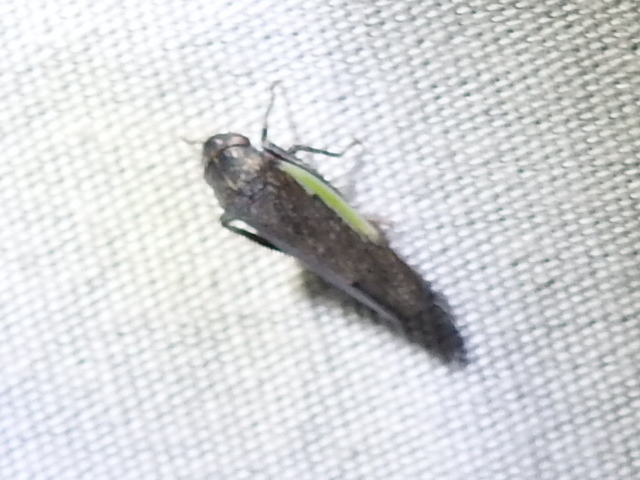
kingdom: Animalia
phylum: Arthropoda
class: Insecta
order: Hemiptera
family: Cicadellidae
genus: Hamana
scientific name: Hamana gelbata
